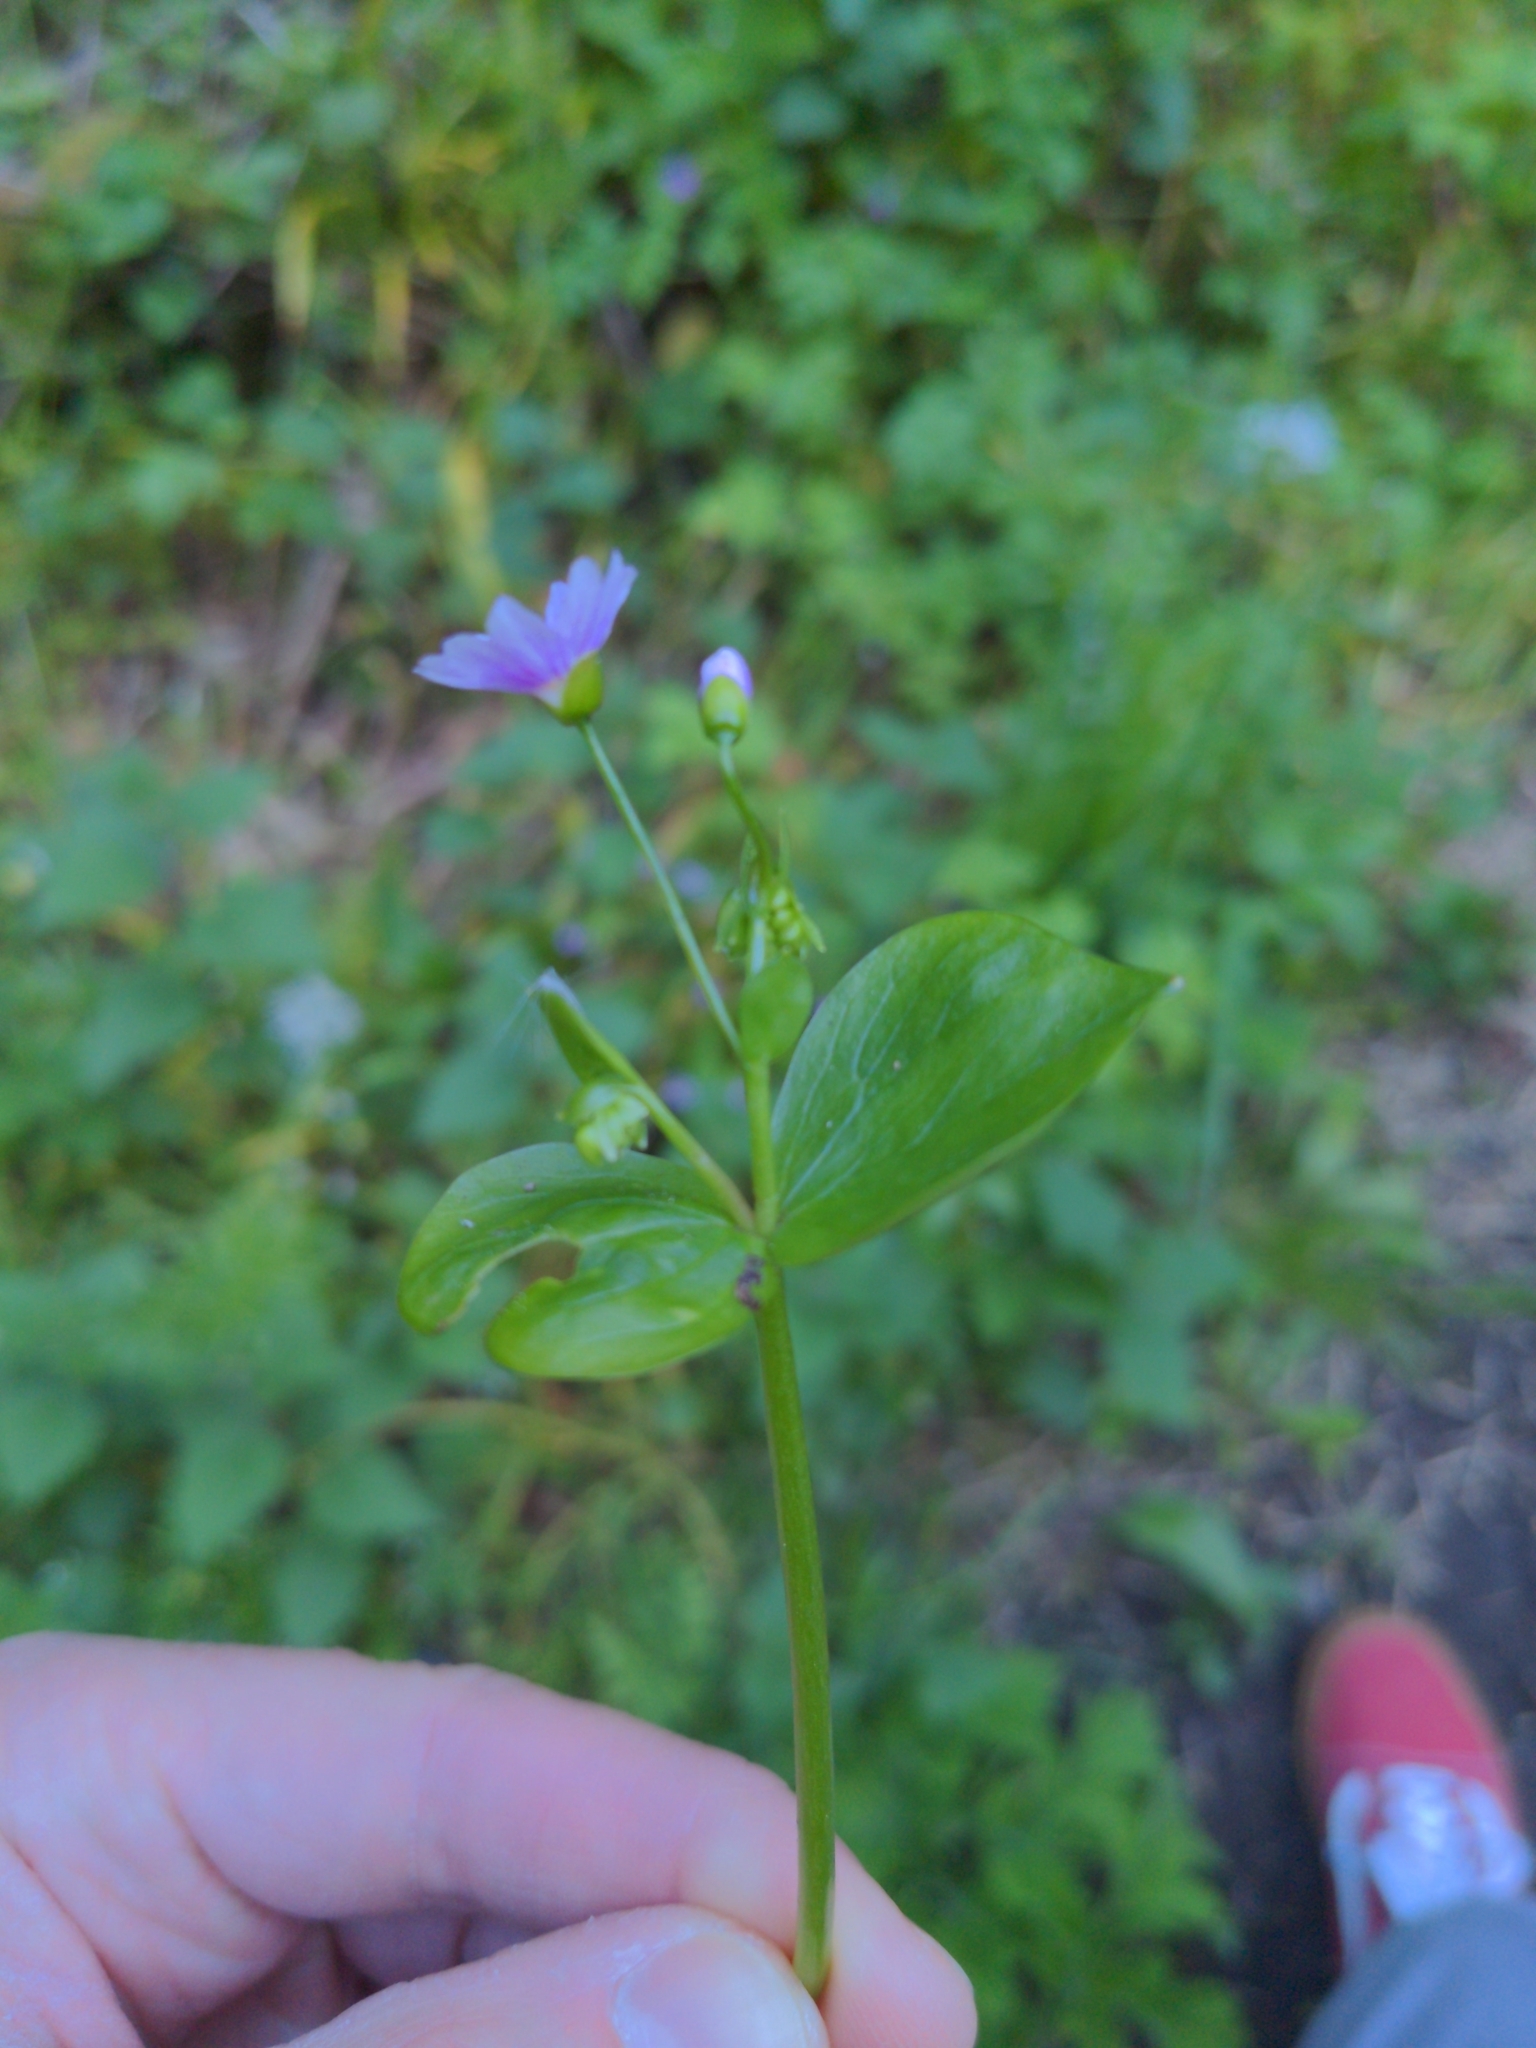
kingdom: Plantae
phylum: Tracheophyta
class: Magnoliopsida
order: Caryophyllales
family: Montiaceae
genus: Claytonia
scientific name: Claytonia sibirica
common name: Pink purslane
